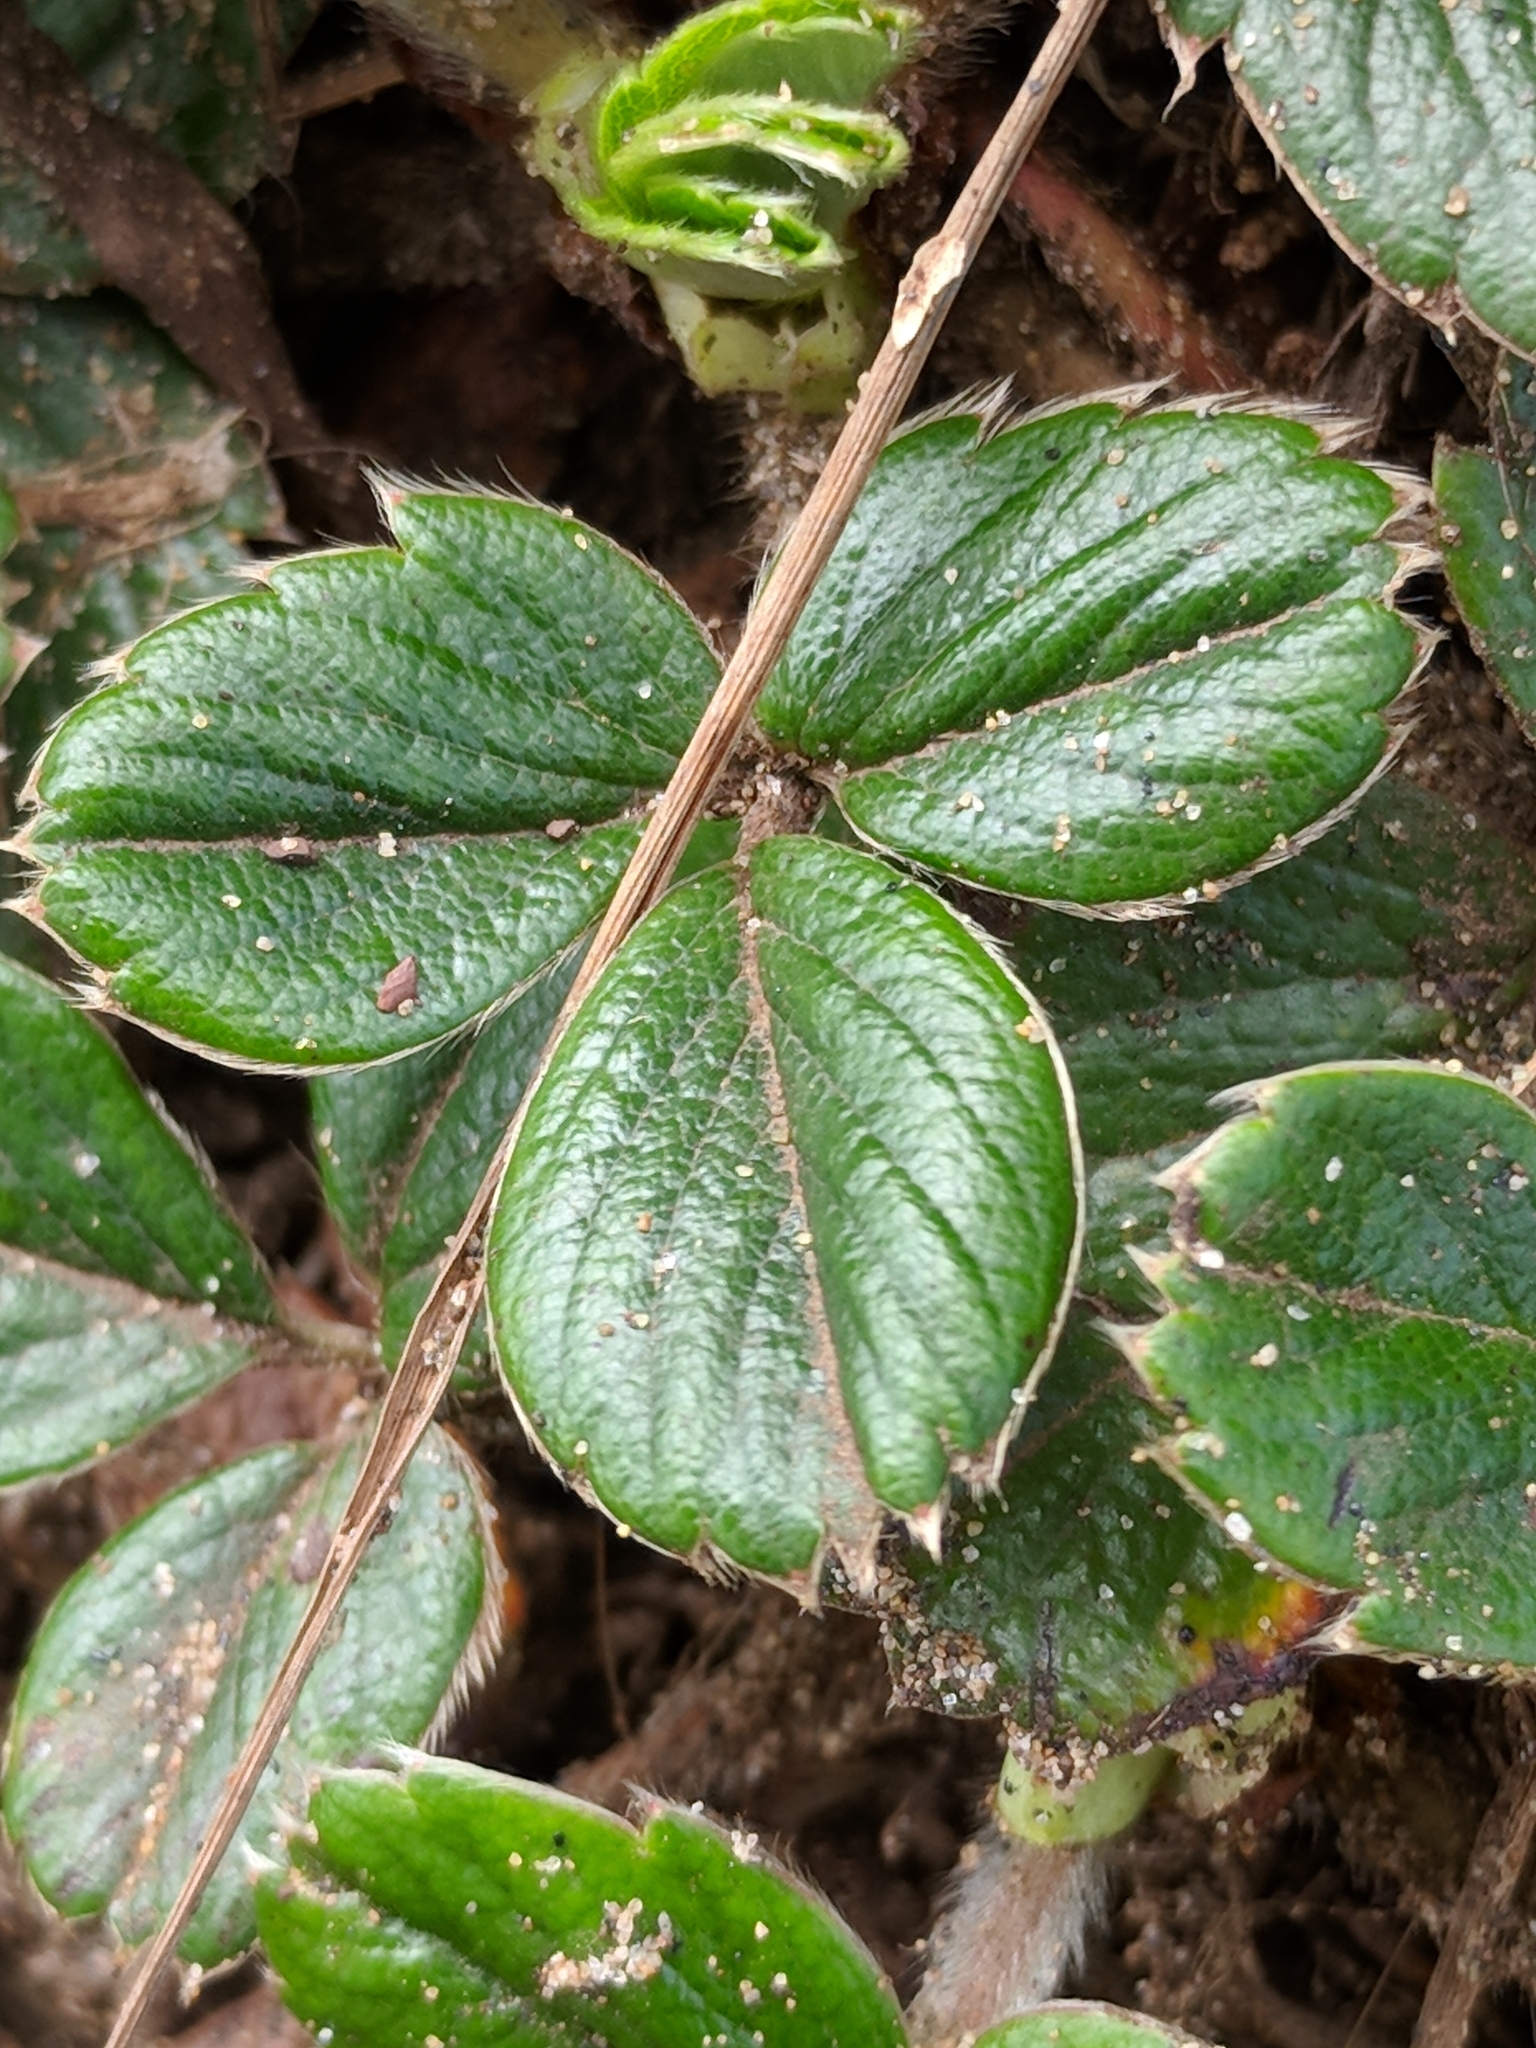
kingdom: Plantae
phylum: Tracheophyta
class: Magnoliopsida
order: Rosales
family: Rosaceae
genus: Fragaria
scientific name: Fragaria chiloensis
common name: Beach strawberry
